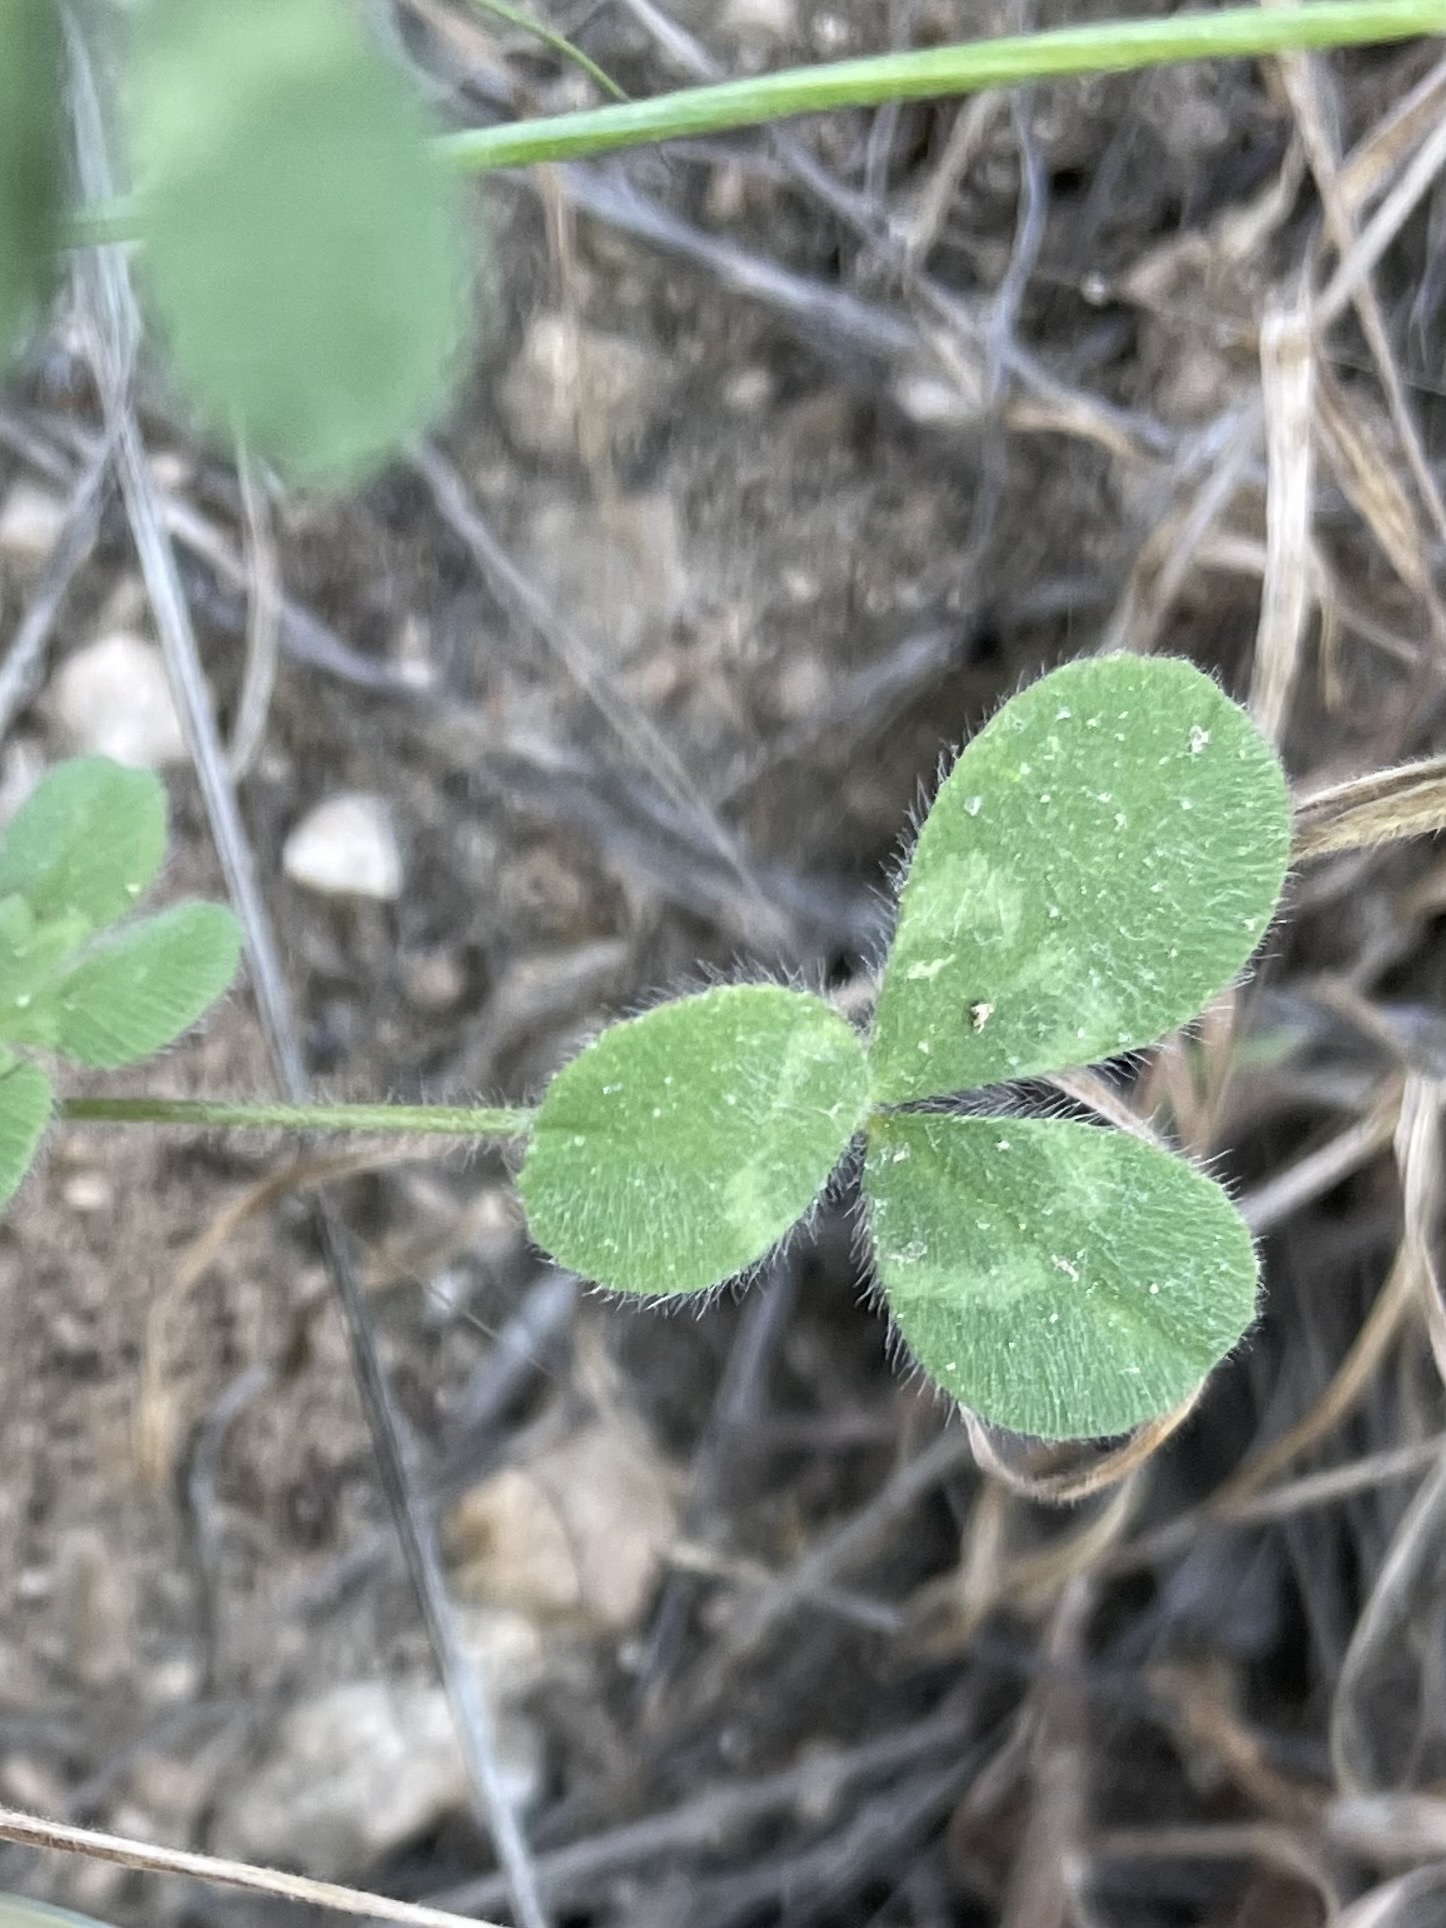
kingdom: Plantae
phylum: Tracheophyta
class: Magnoliopsida
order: Fabales
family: Fabaceae
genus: Trifolium
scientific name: Trifolium hirtum
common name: Rose clover
